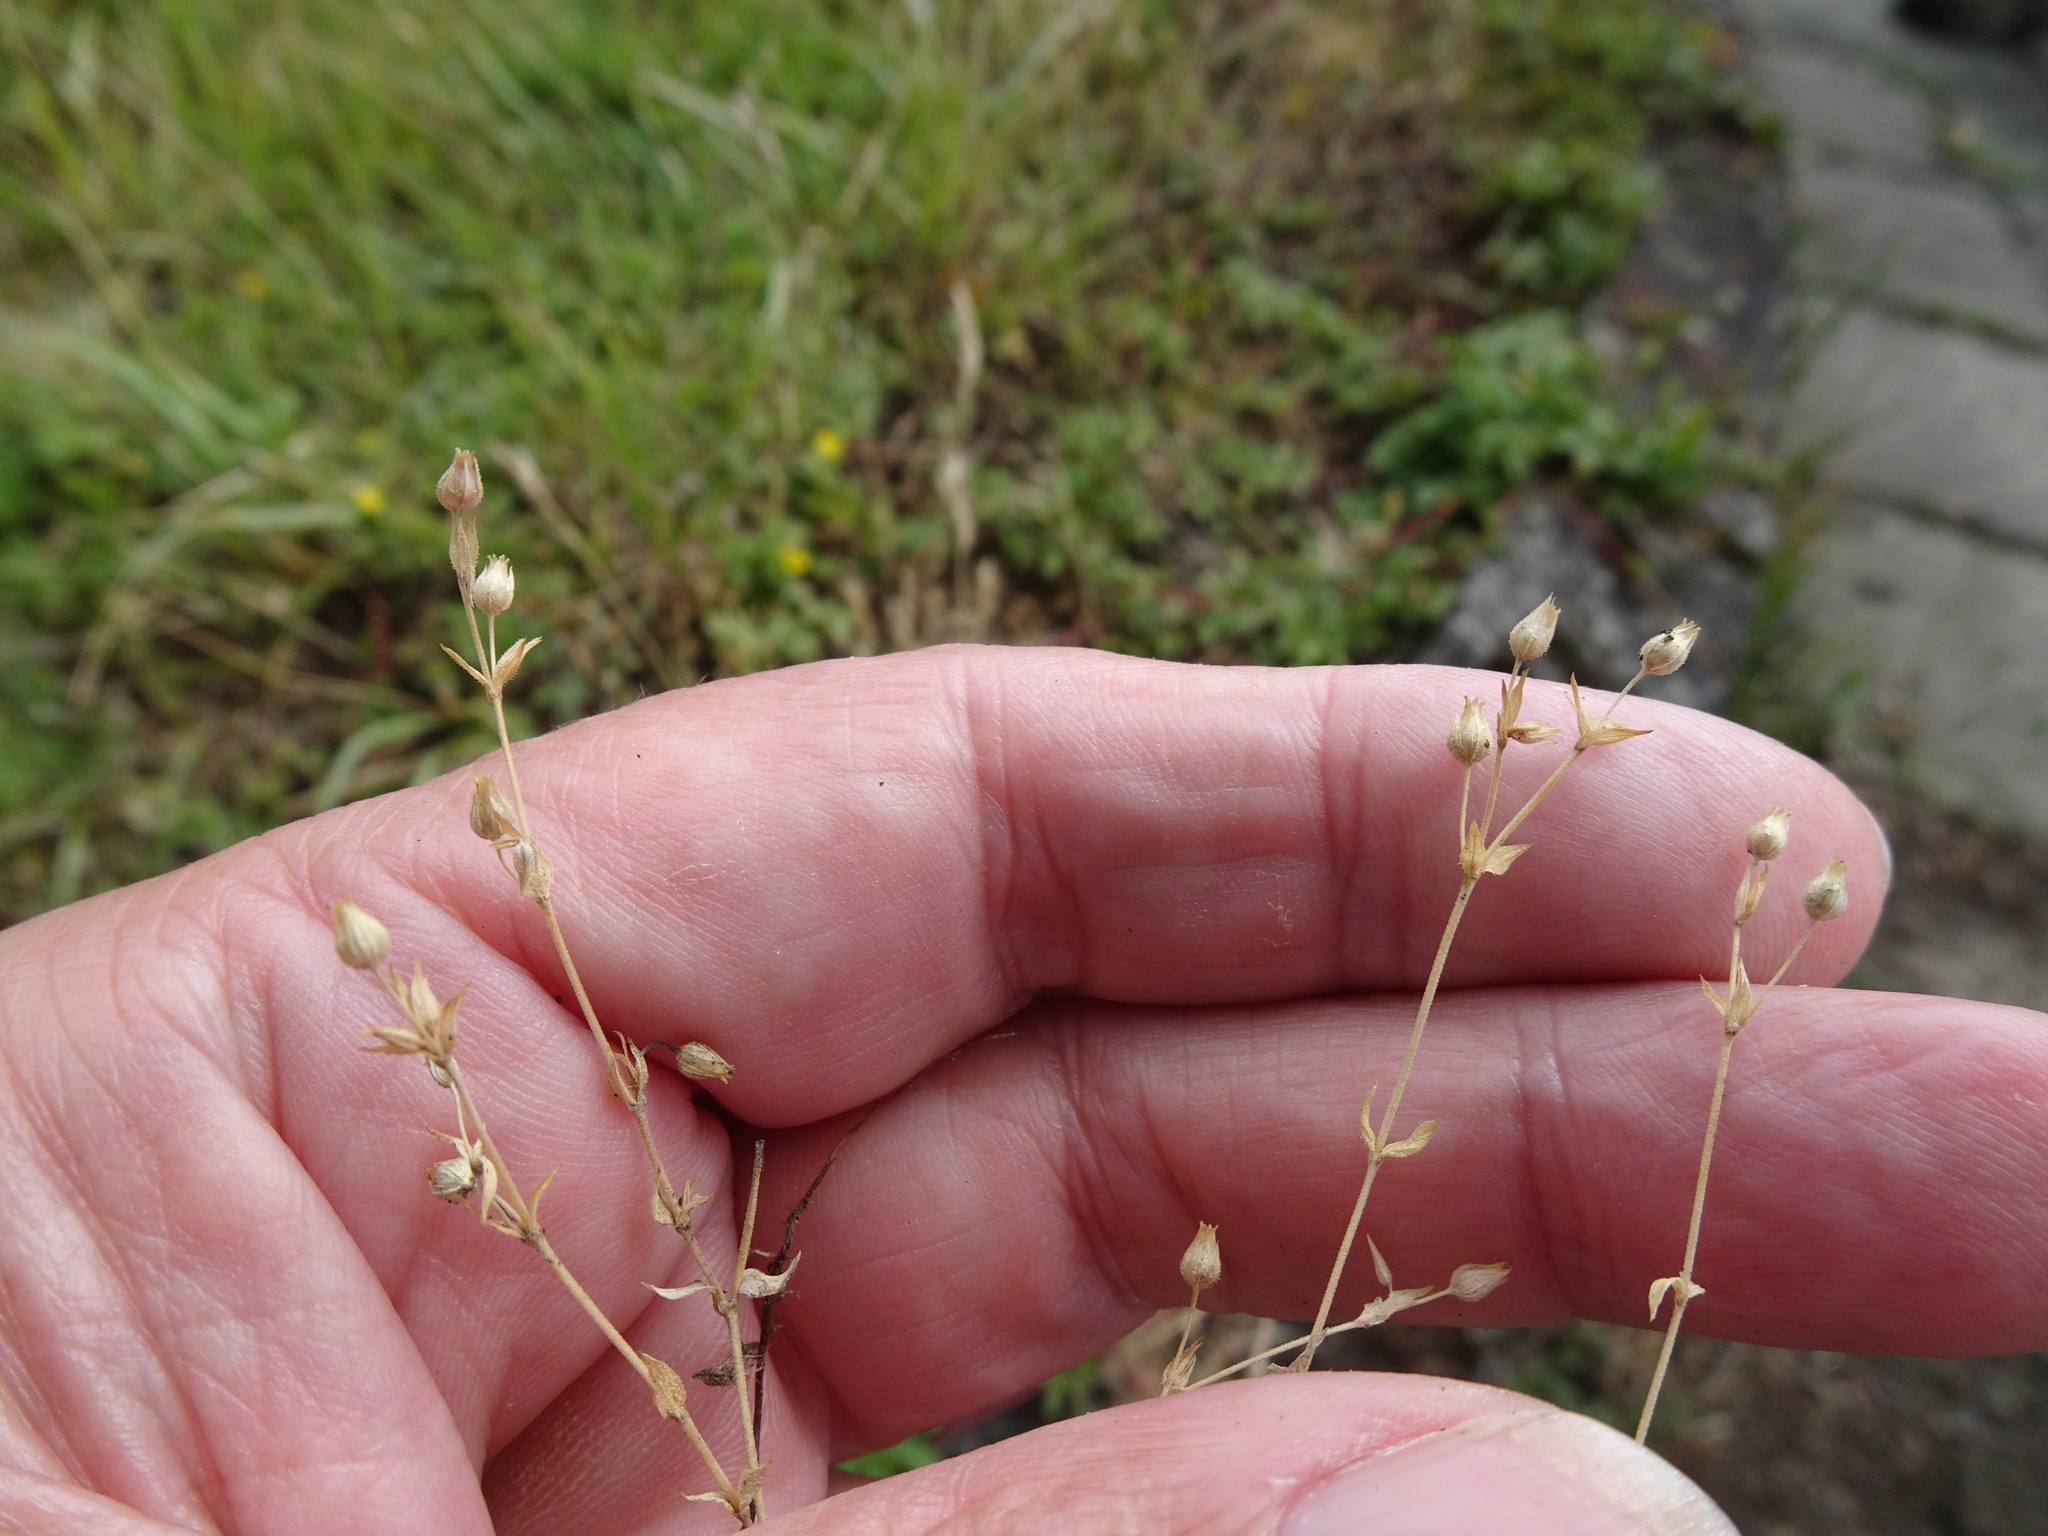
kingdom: Plantae
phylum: Tracheophyta
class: Magnoliopsida
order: Caryophyllales
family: Caryophyllaceae
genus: Arenaria
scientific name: Arenaria serpyllifolia
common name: Thyme-leaved sandwort
